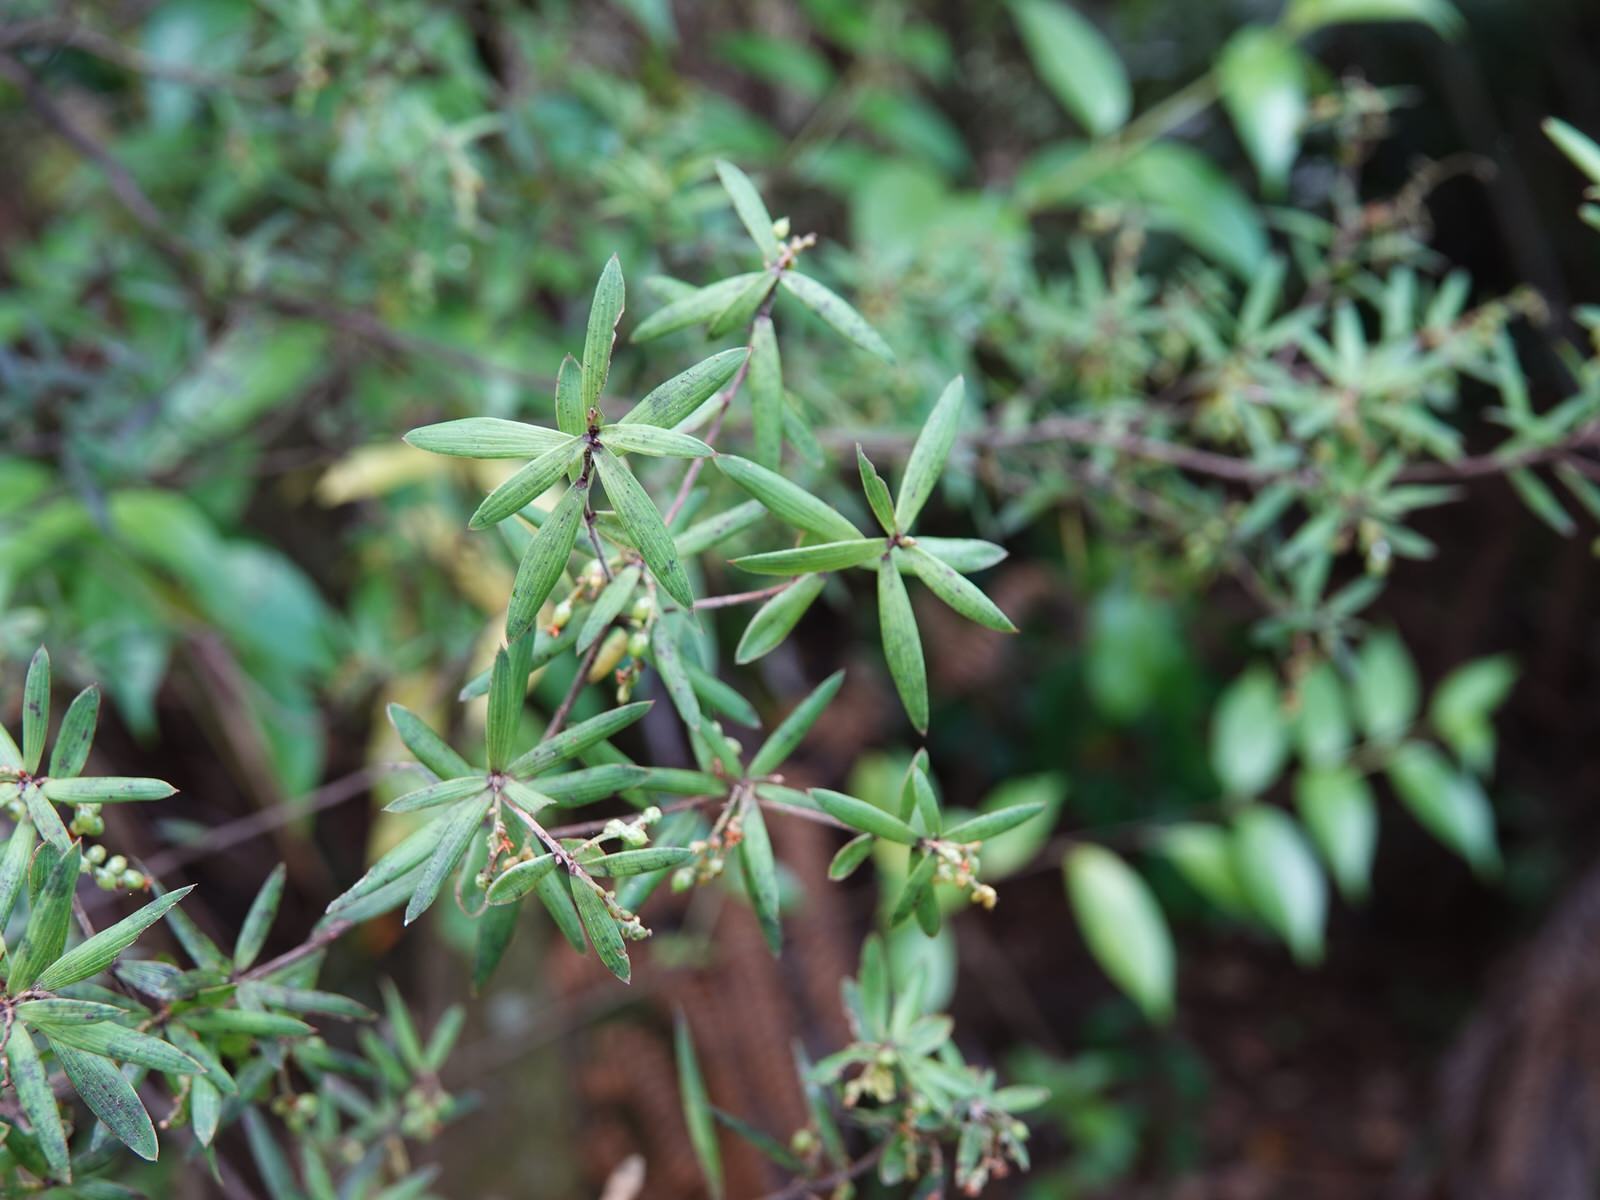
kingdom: Plantae
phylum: Tracheophyta
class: Magnoliopsida
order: Ericales
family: Ericaceae
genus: Leucopogon
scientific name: Leucopogon fasciculatus
